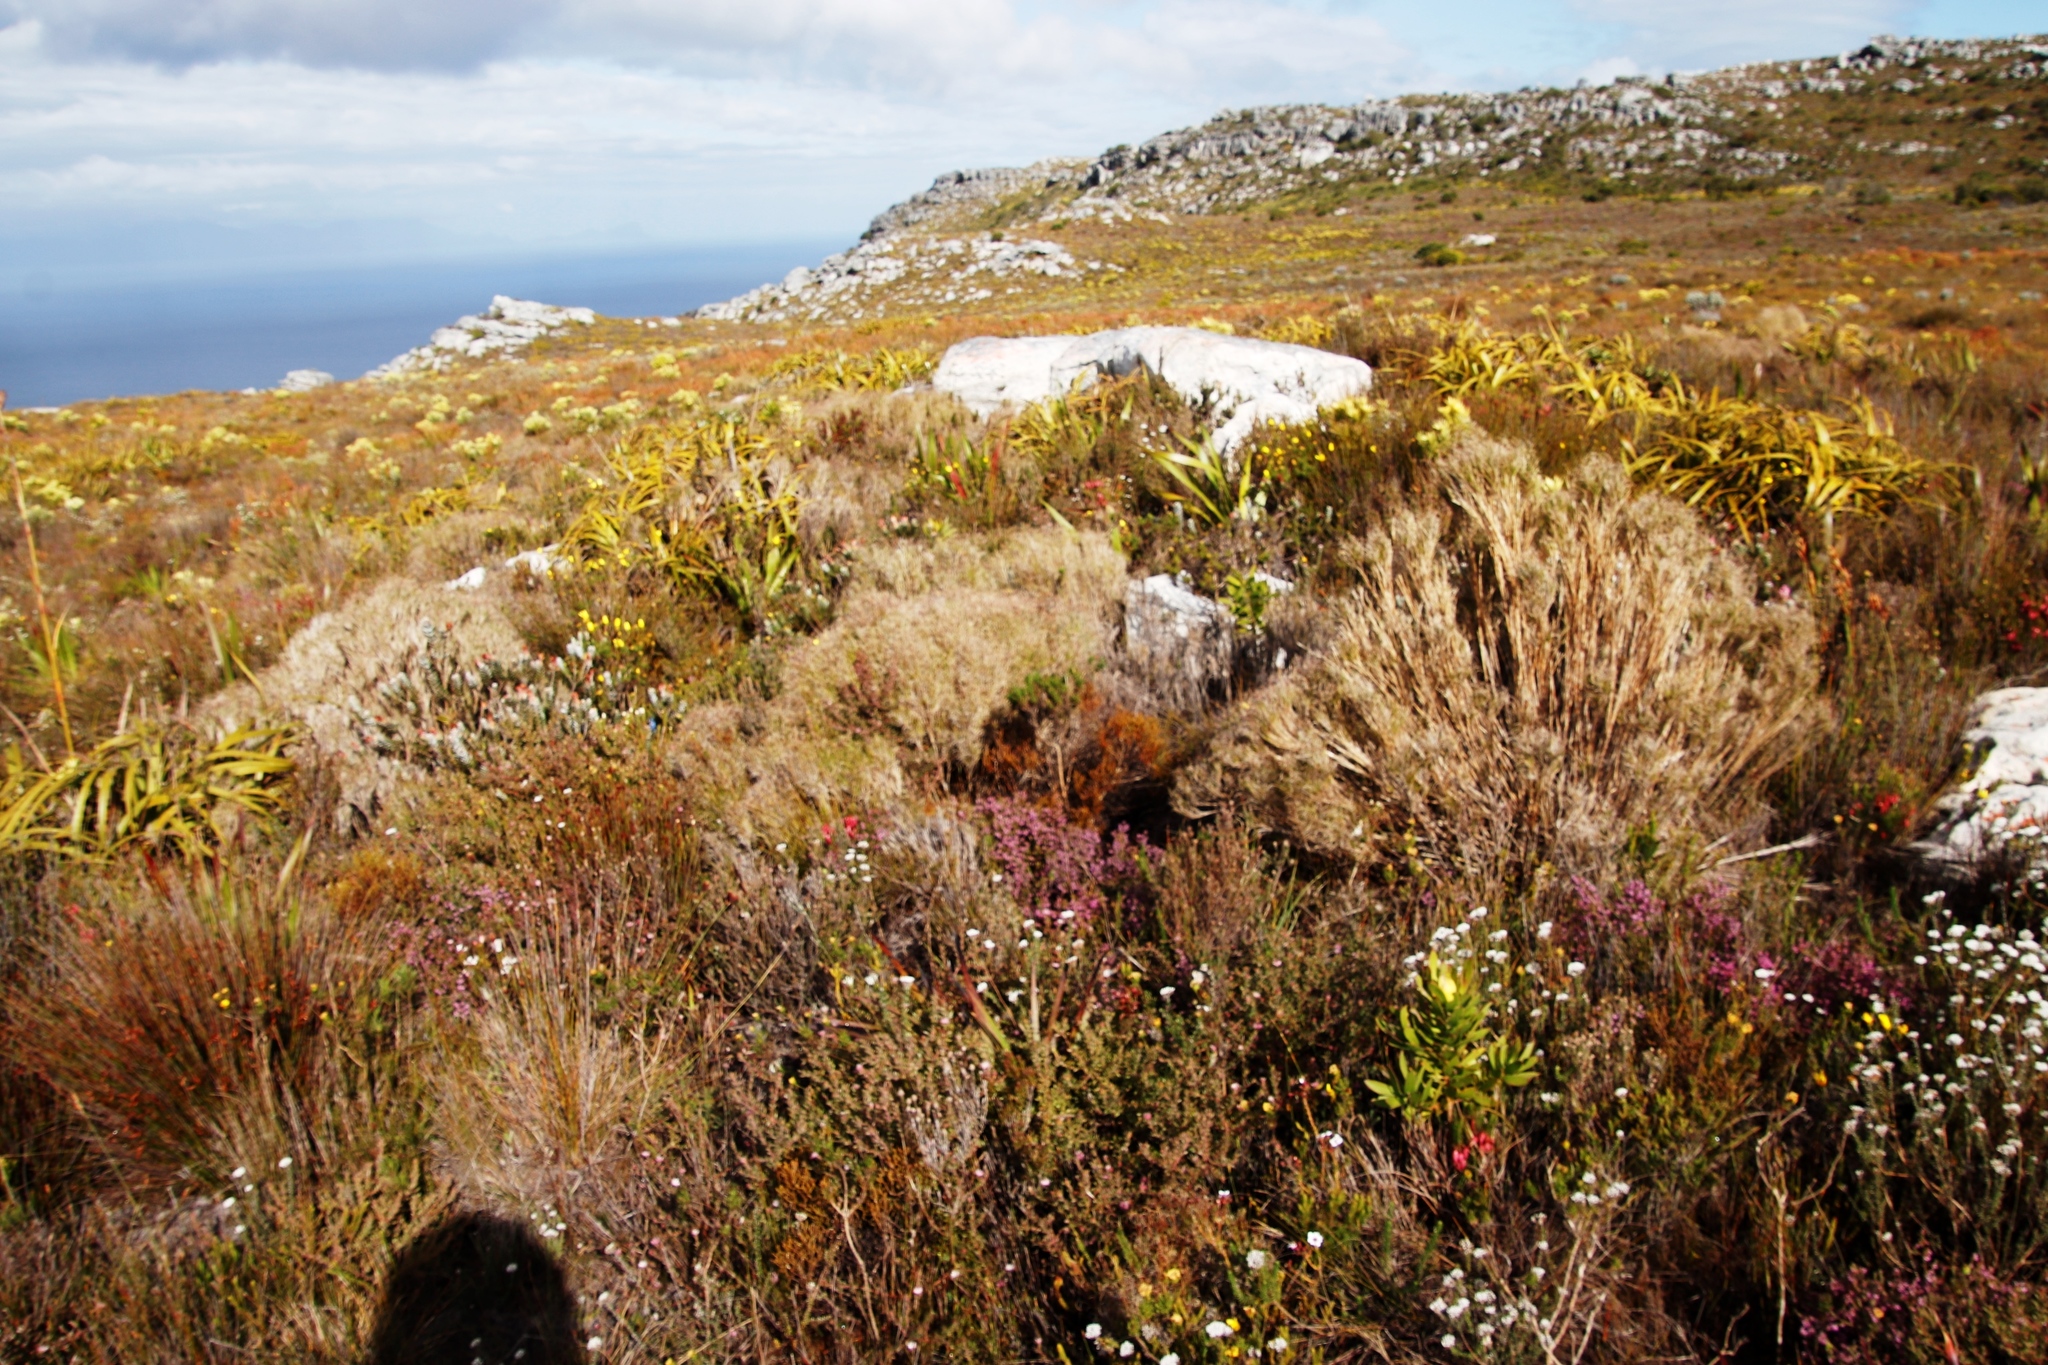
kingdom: Plantae
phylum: Tracheophyta
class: Liliopsida
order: Poales
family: Poaceae
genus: Pseudopentameris
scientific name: Pseudopentameris macrantha
